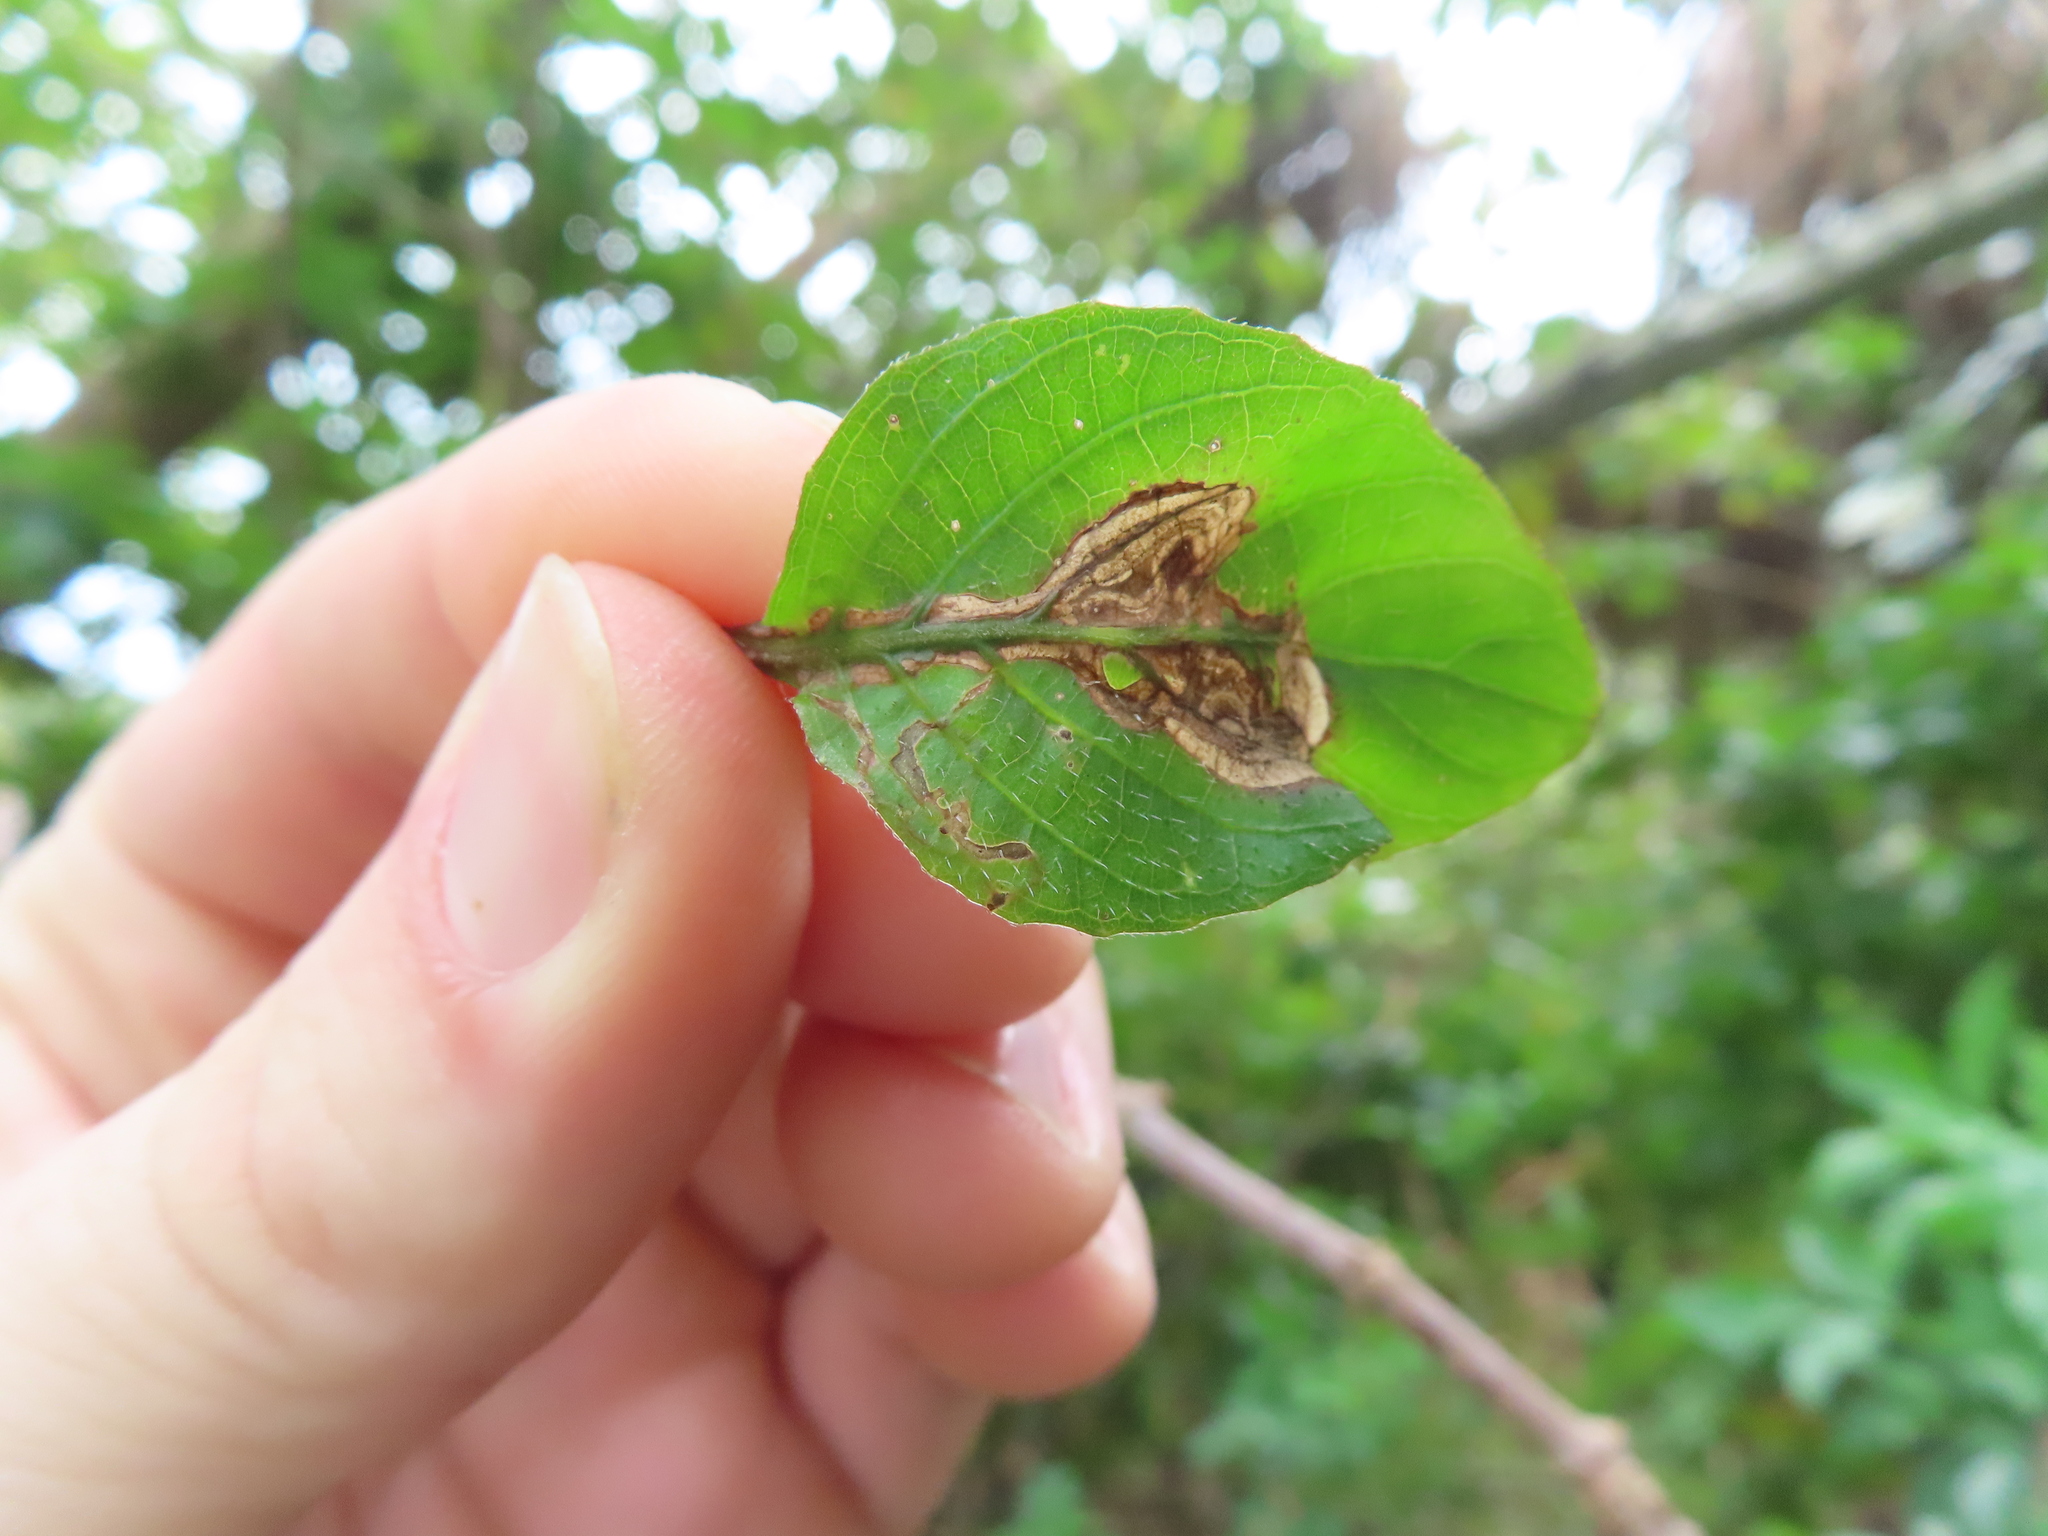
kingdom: Animalia
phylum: Arthropoda
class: Insecta
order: Diptera
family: Agromyzidae
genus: Liriomyza
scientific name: Liriomyza blechi
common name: Agromyzid fly
